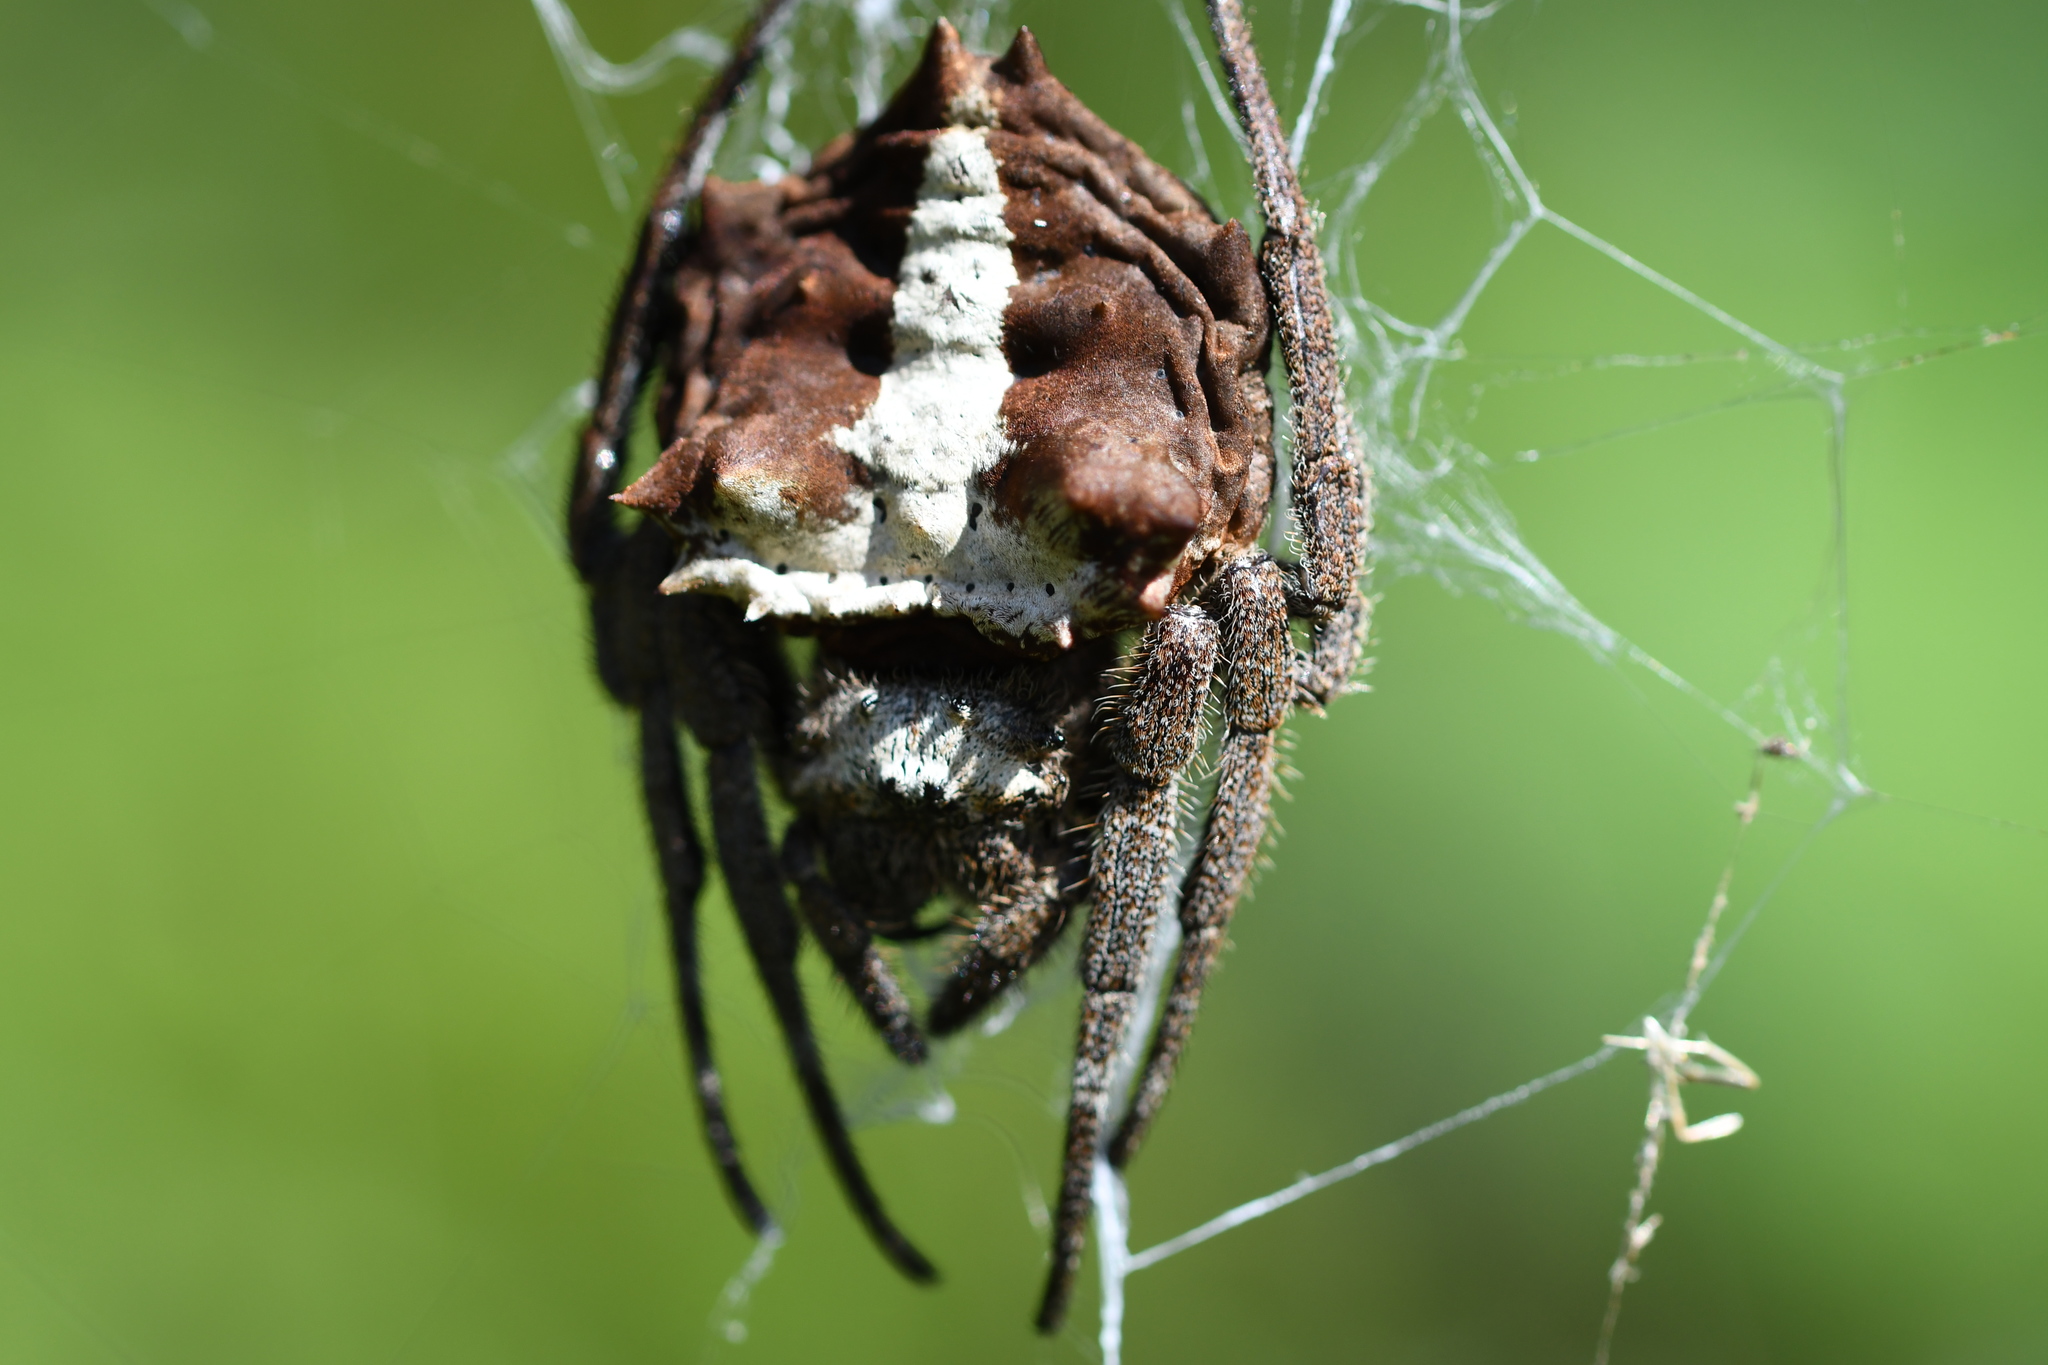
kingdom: Animalia
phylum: Arthropoda
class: Arachnida
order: Araneae
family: Araneidae
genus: Caerostris
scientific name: Caerostris extrusa
